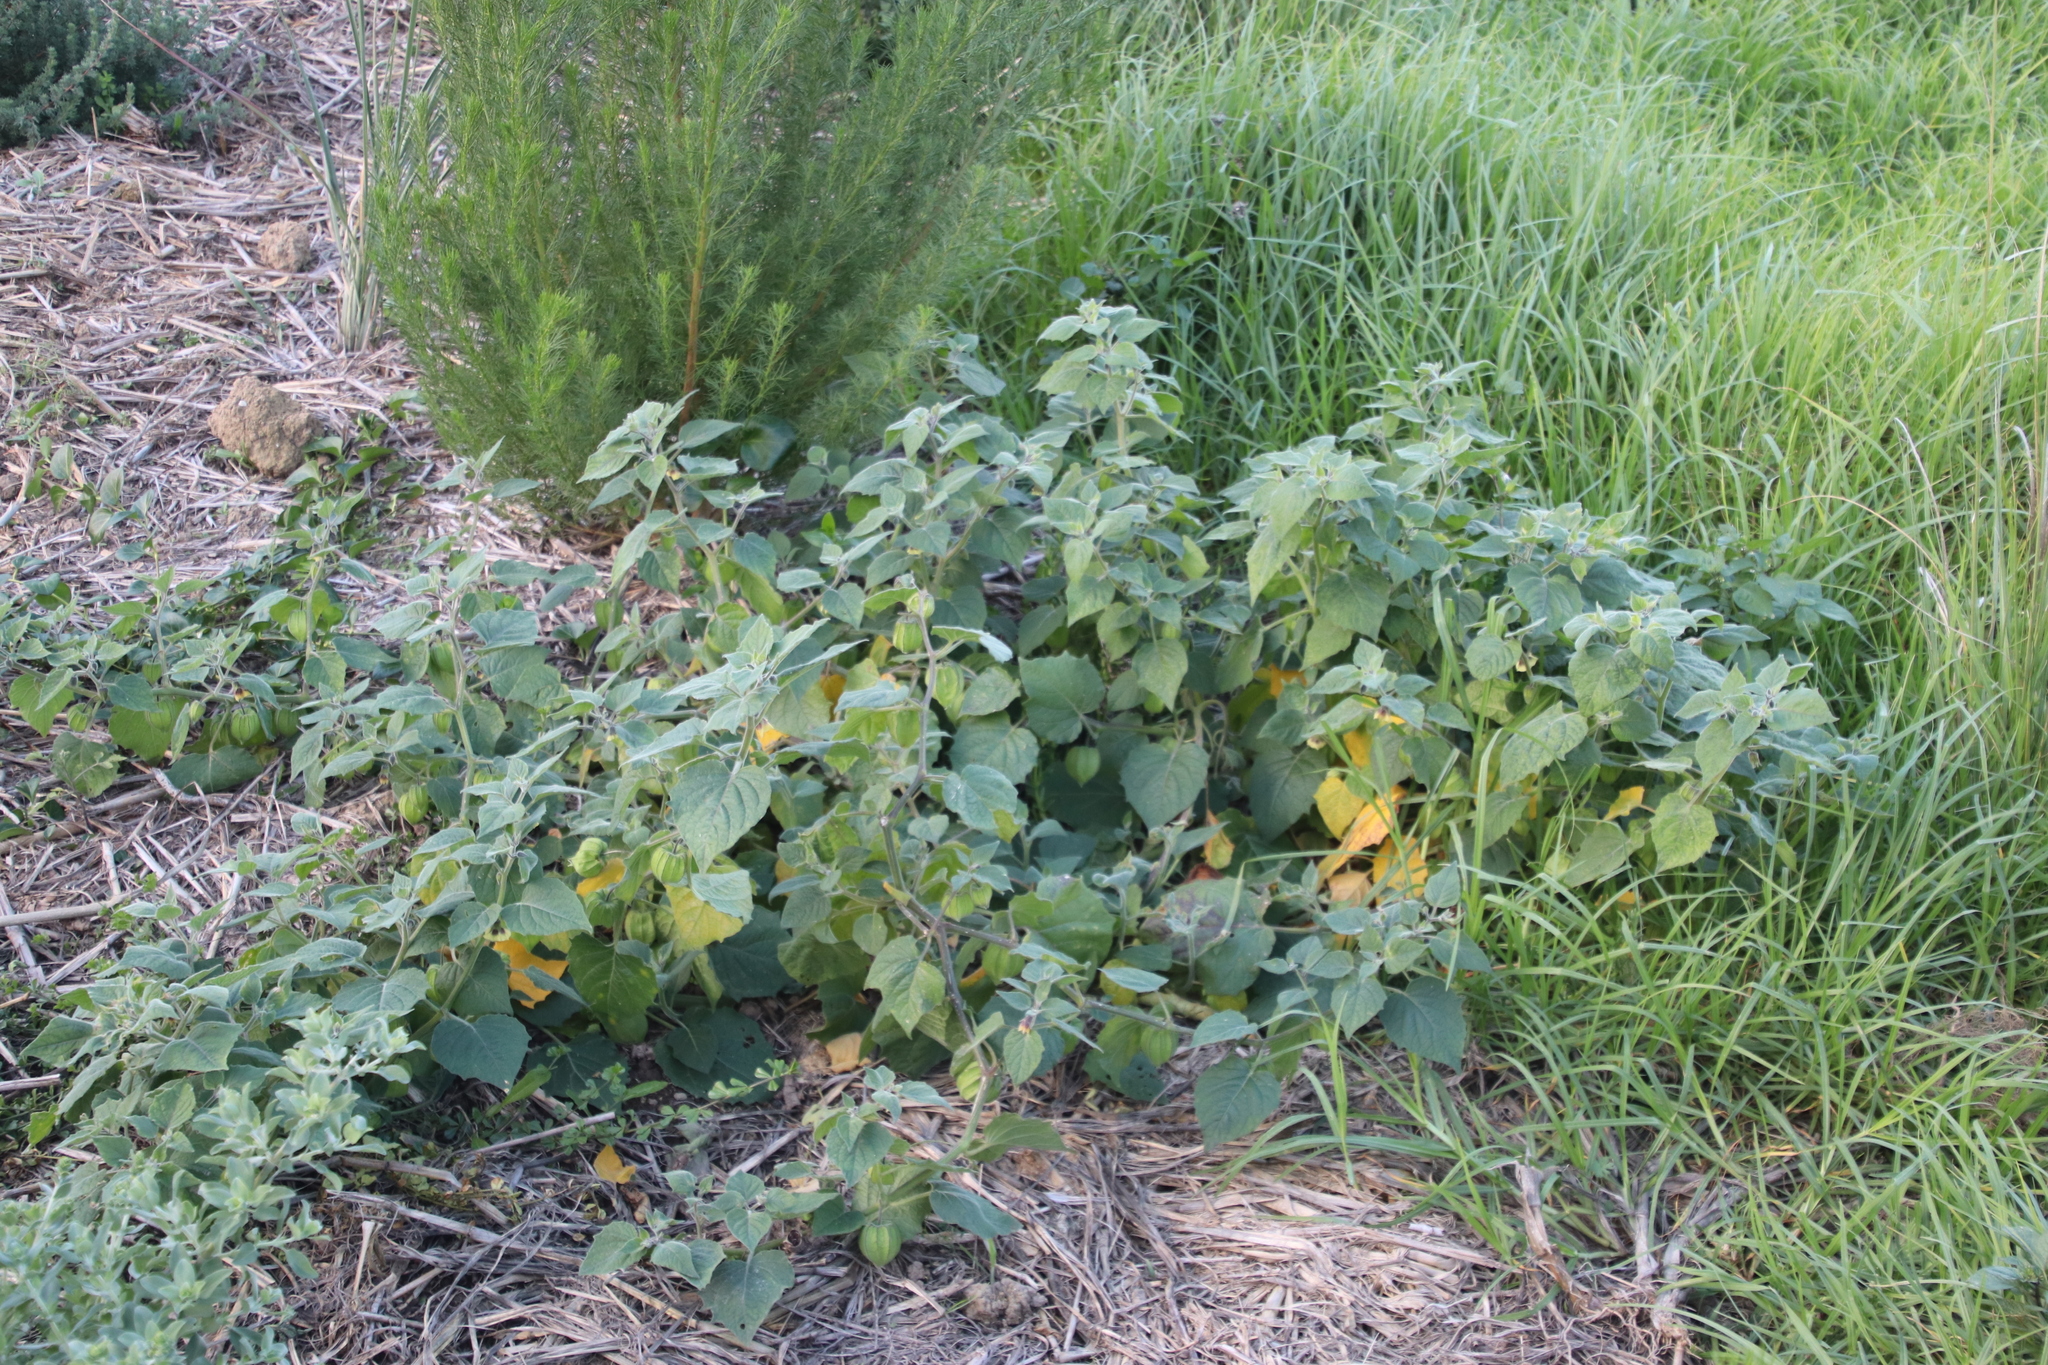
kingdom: Plantae
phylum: Tracheophyta
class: Magnoliopsida
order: Solanales
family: Solanaceae
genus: Physalis
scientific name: Physalis peruviana
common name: Cape-gooseberry
